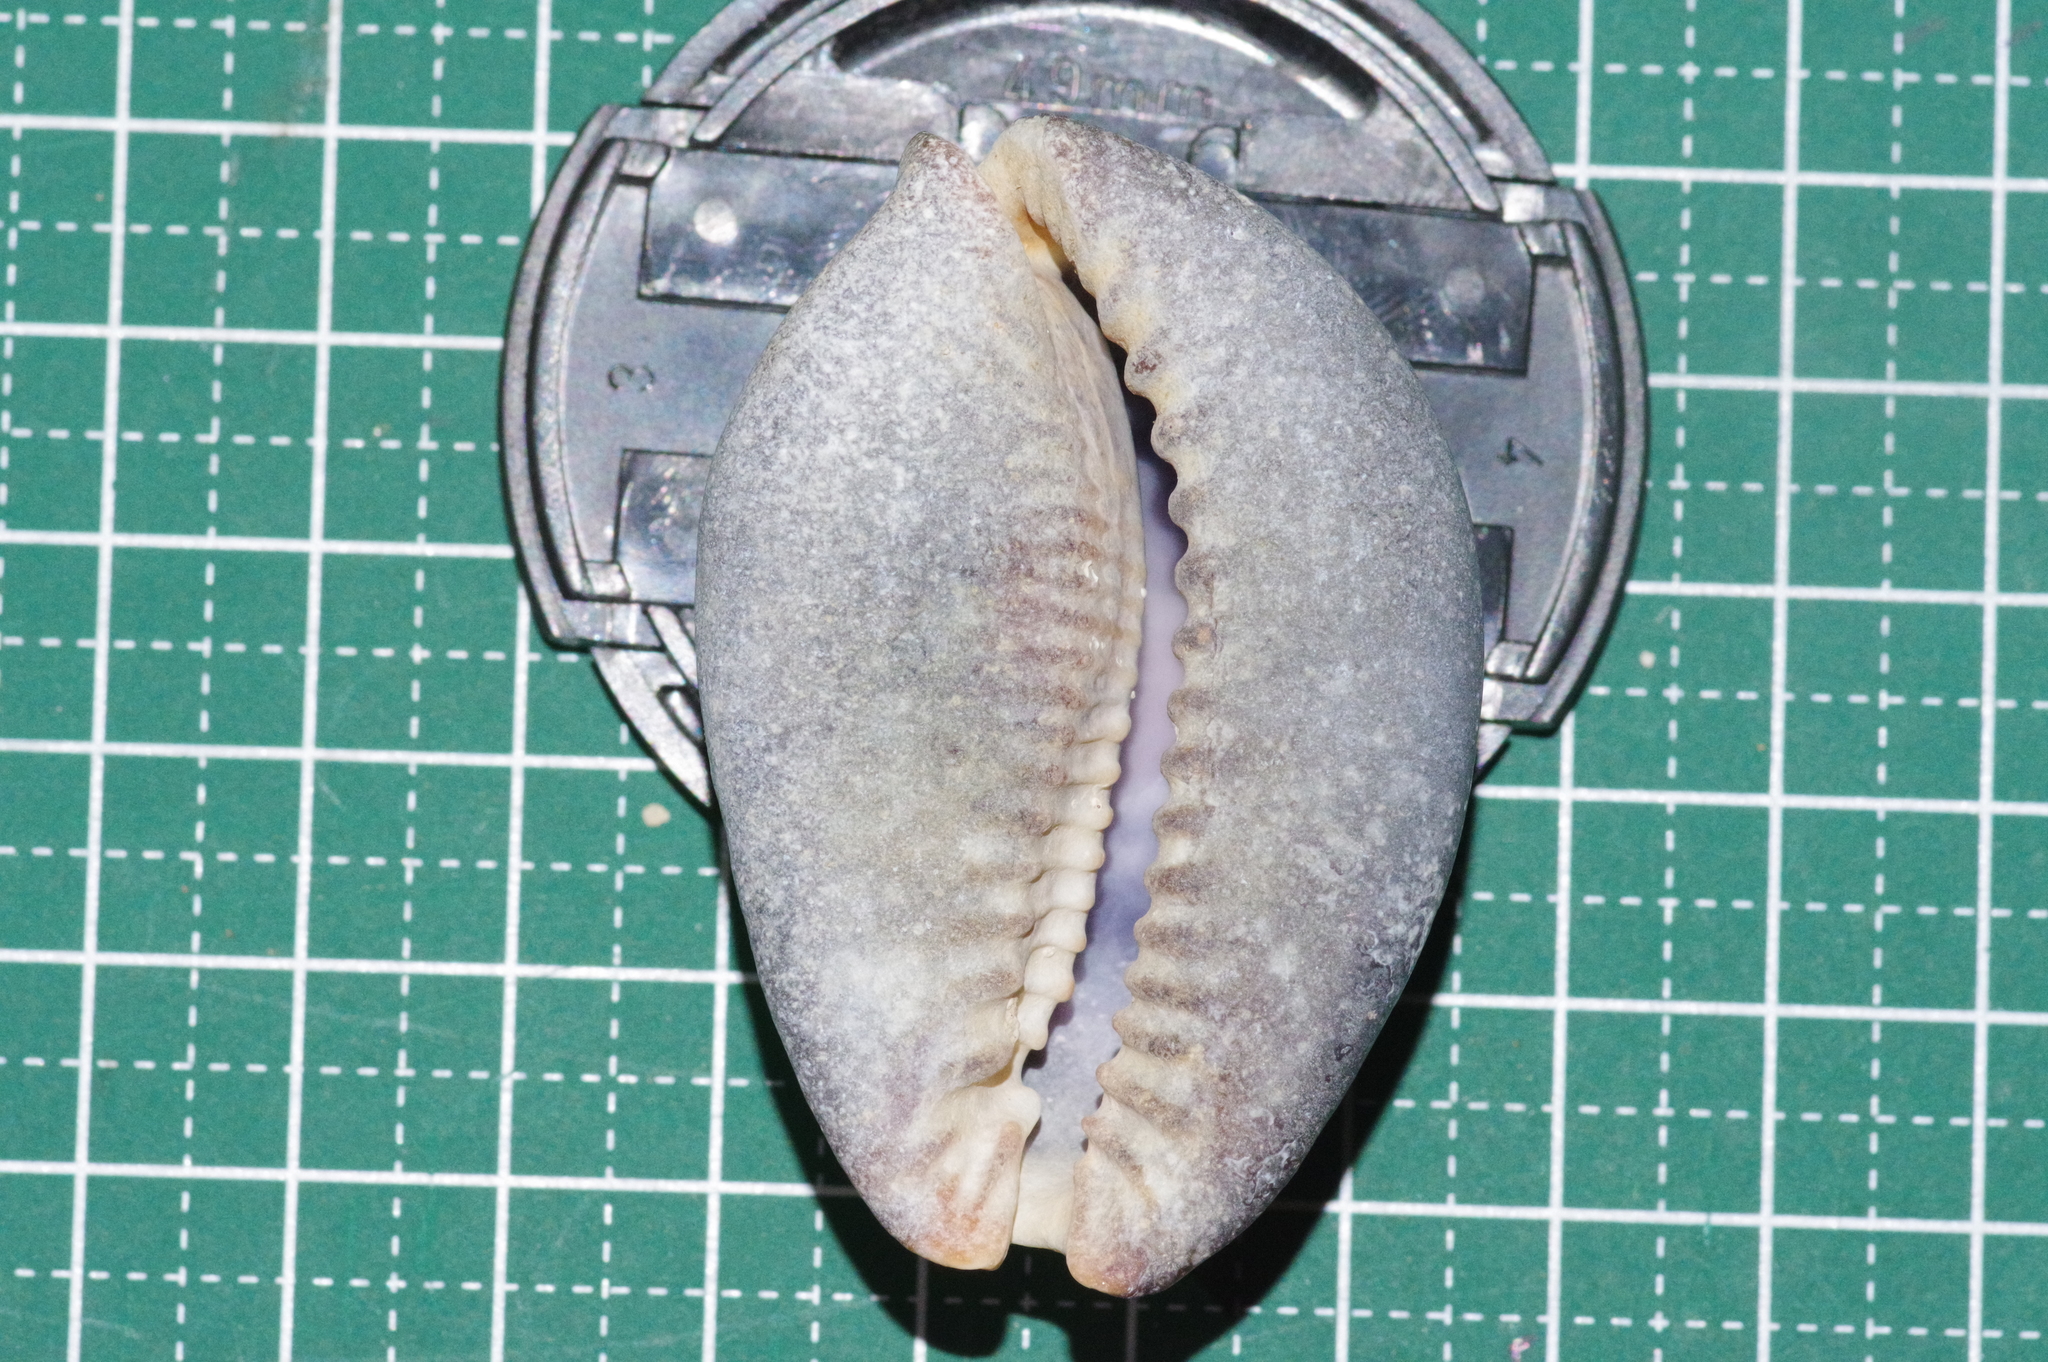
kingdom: Animalia
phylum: Mollusca
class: Gastropoda
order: Littorinimorpha
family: Cypraeidae
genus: Mauritia
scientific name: Mauritia mauritiana
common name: Hump-backed cowrie
